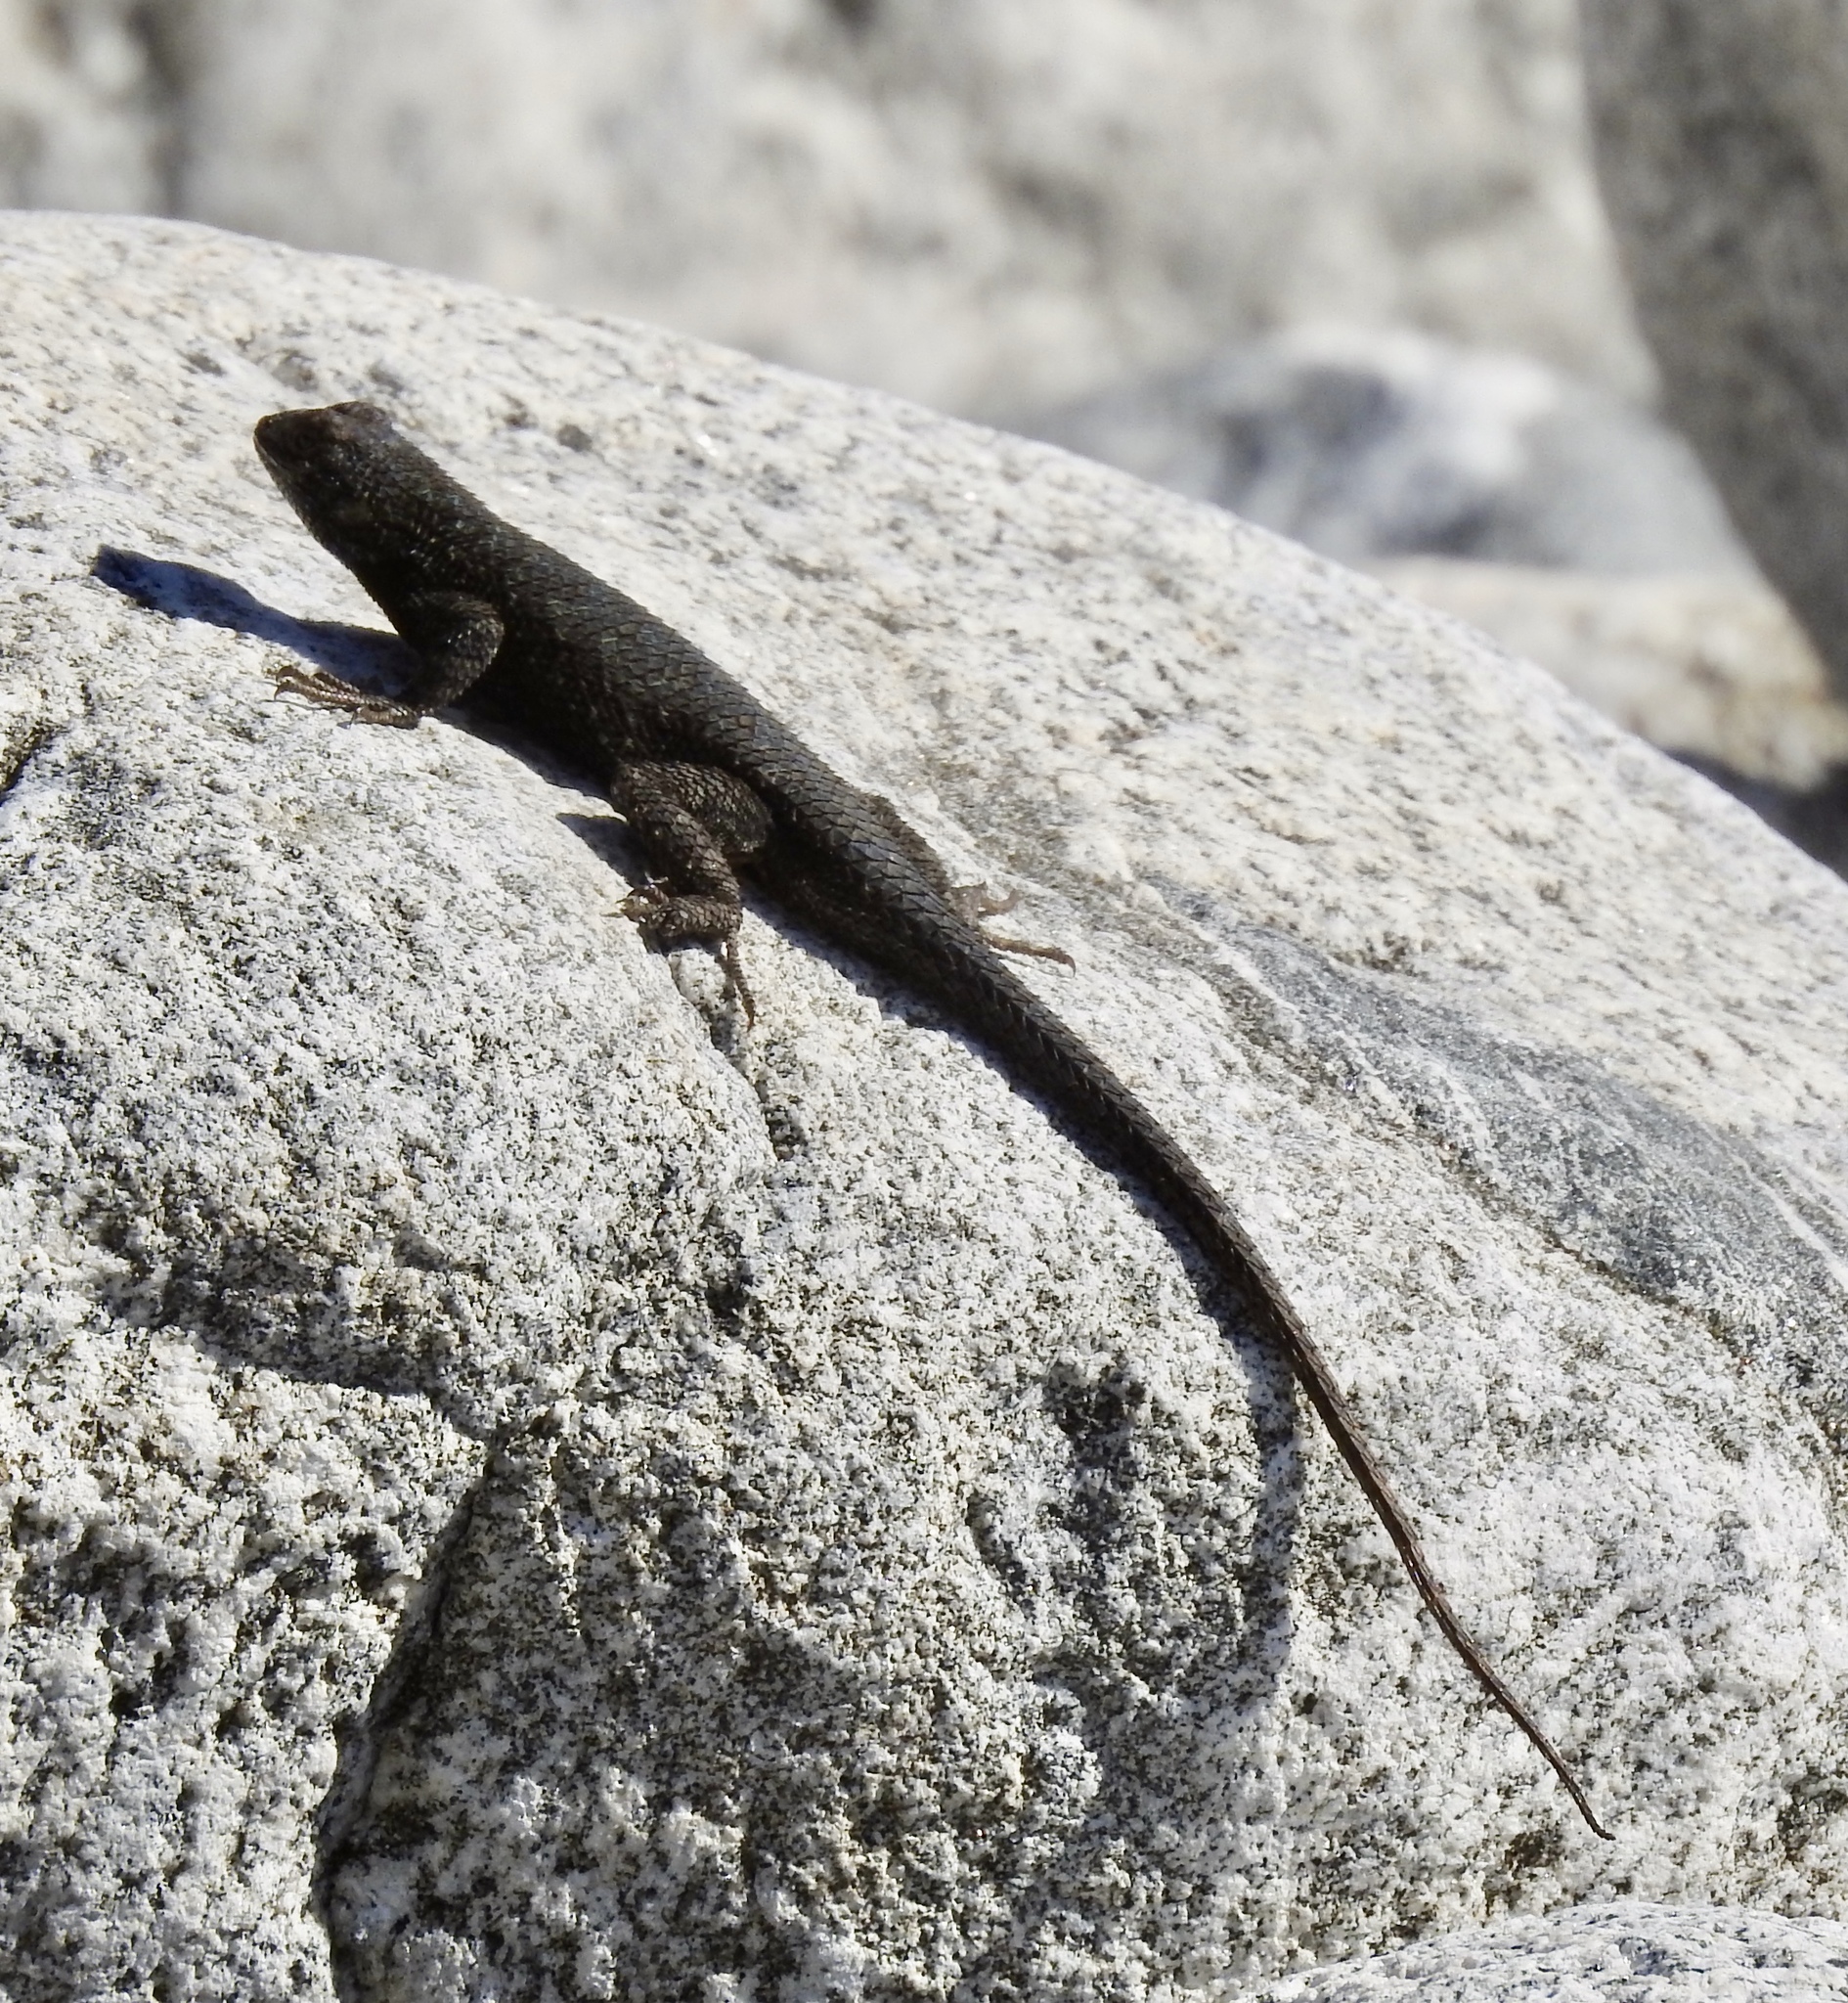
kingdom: Animalia
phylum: Chordata
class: Squamata
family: Phrynosomatidae
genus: Sceloporus
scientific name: Sceloporus occidentalis
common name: Western fence lizard
